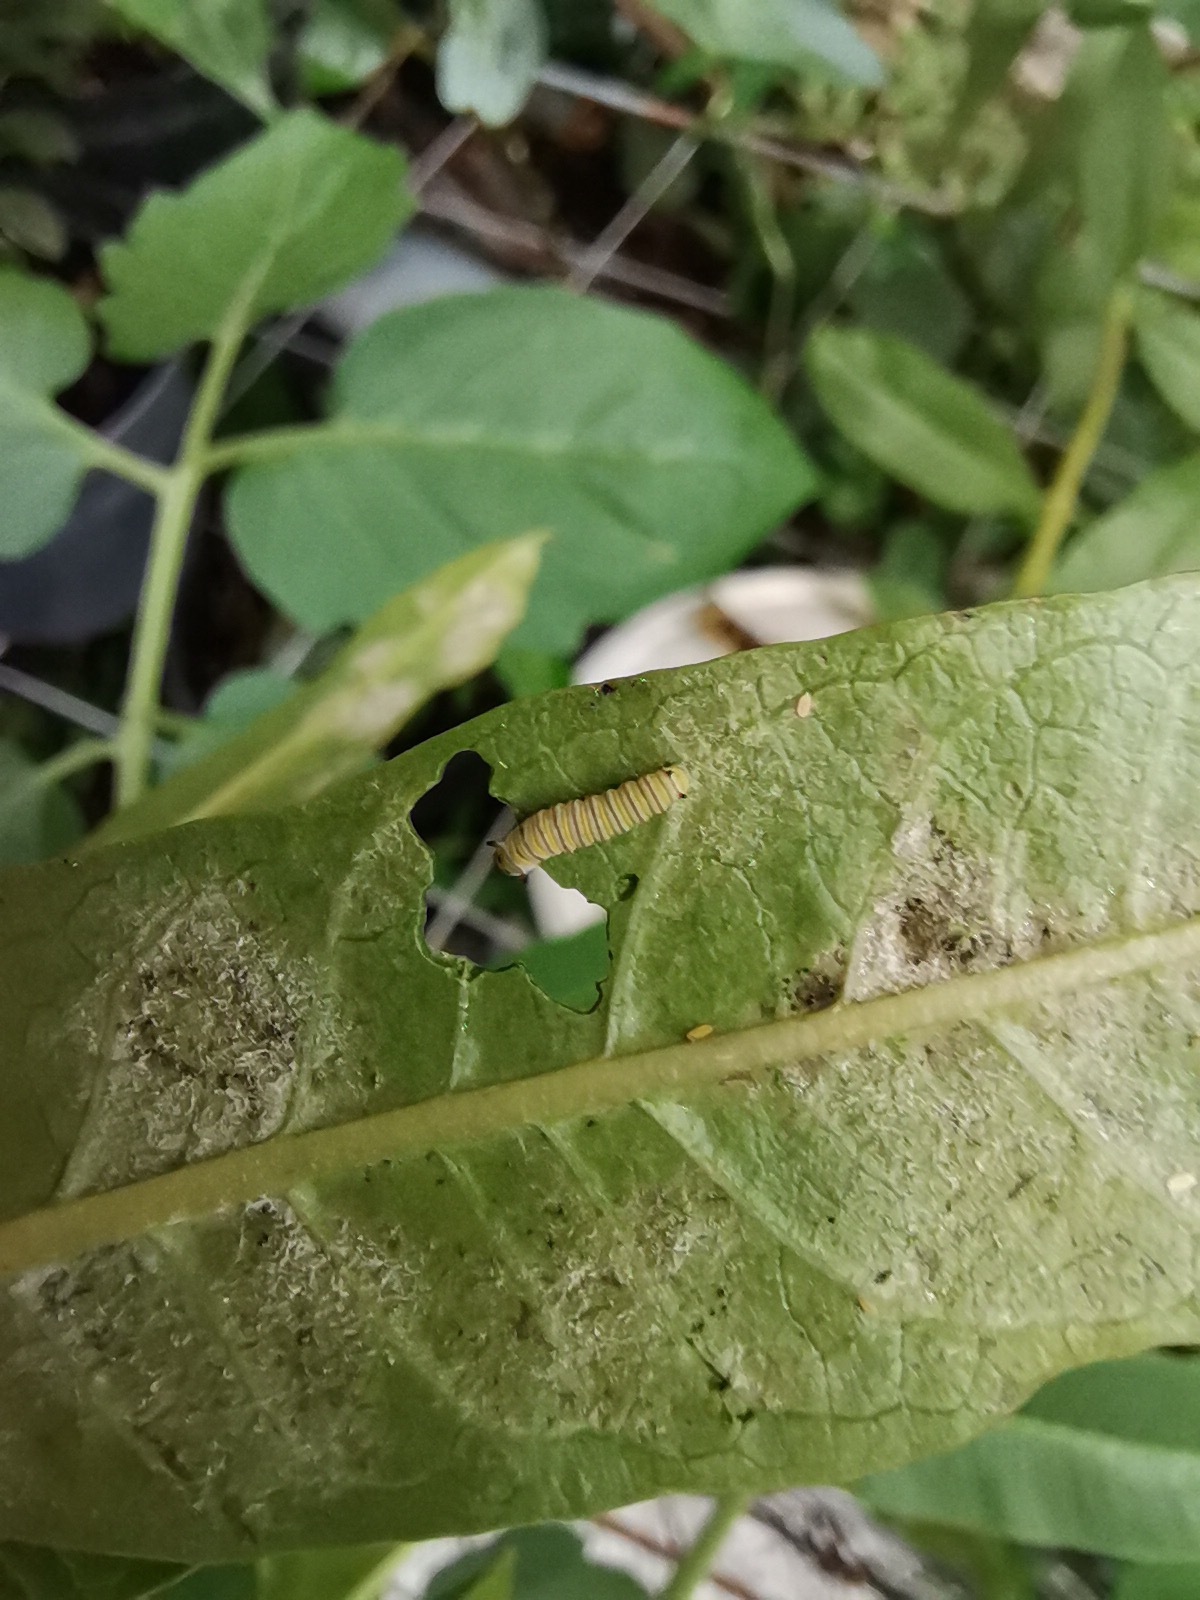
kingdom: Animalia
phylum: Arthropoda
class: Insecta
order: Lepidoptera
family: Nymphalidae
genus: Danaus
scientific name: Danaus plexippus
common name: Monarch
